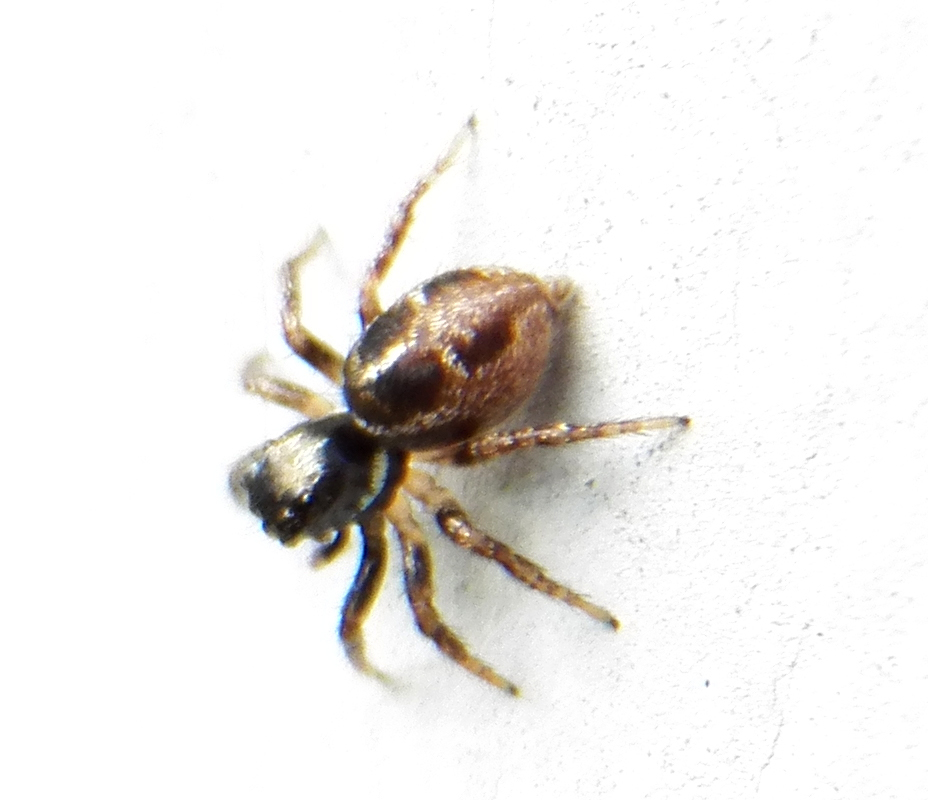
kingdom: Animalia
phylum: Arthropoda
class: Arachnida
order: Araneae
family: Salticidae
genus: Anasaitis
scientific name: Anasaitis canosa
